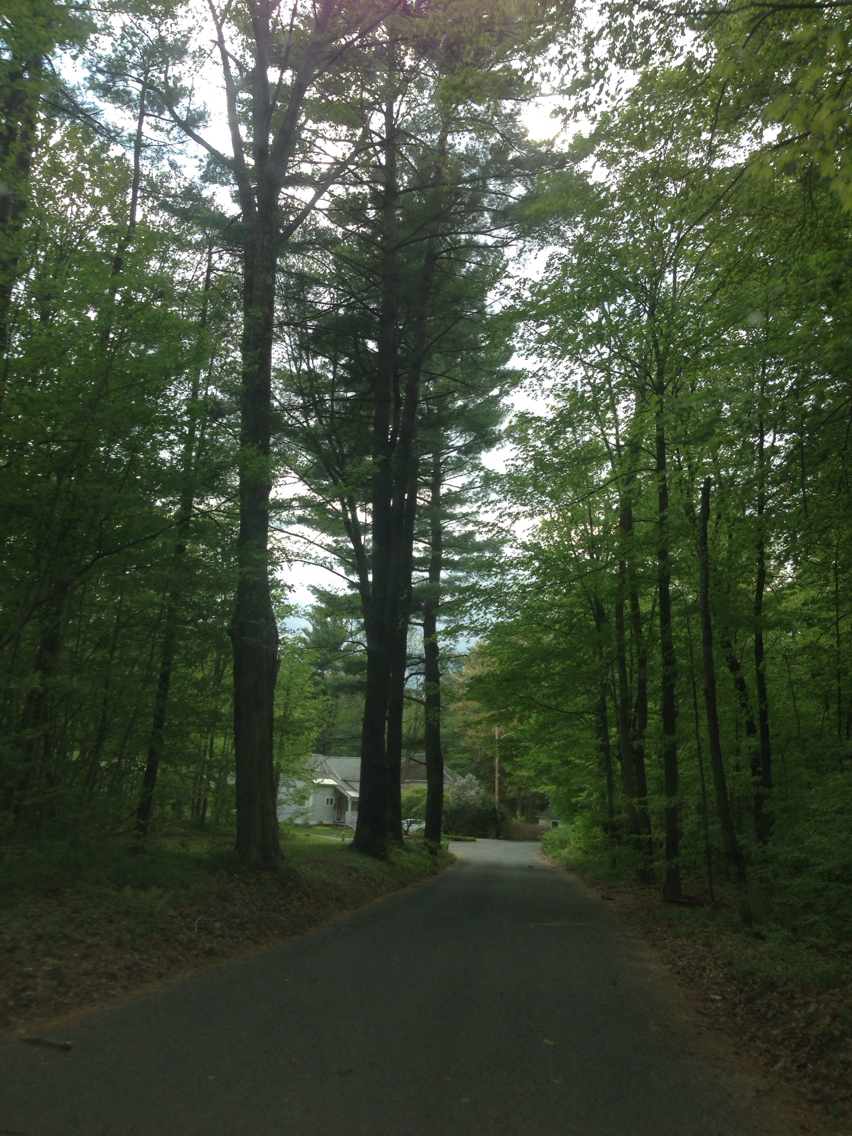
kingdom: Plantae
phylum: Tracheophyta
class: Pinopsida
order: Pinales
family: Pinaceae
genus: Pinus
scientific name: Pinus strobus
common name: Weymouth pine
